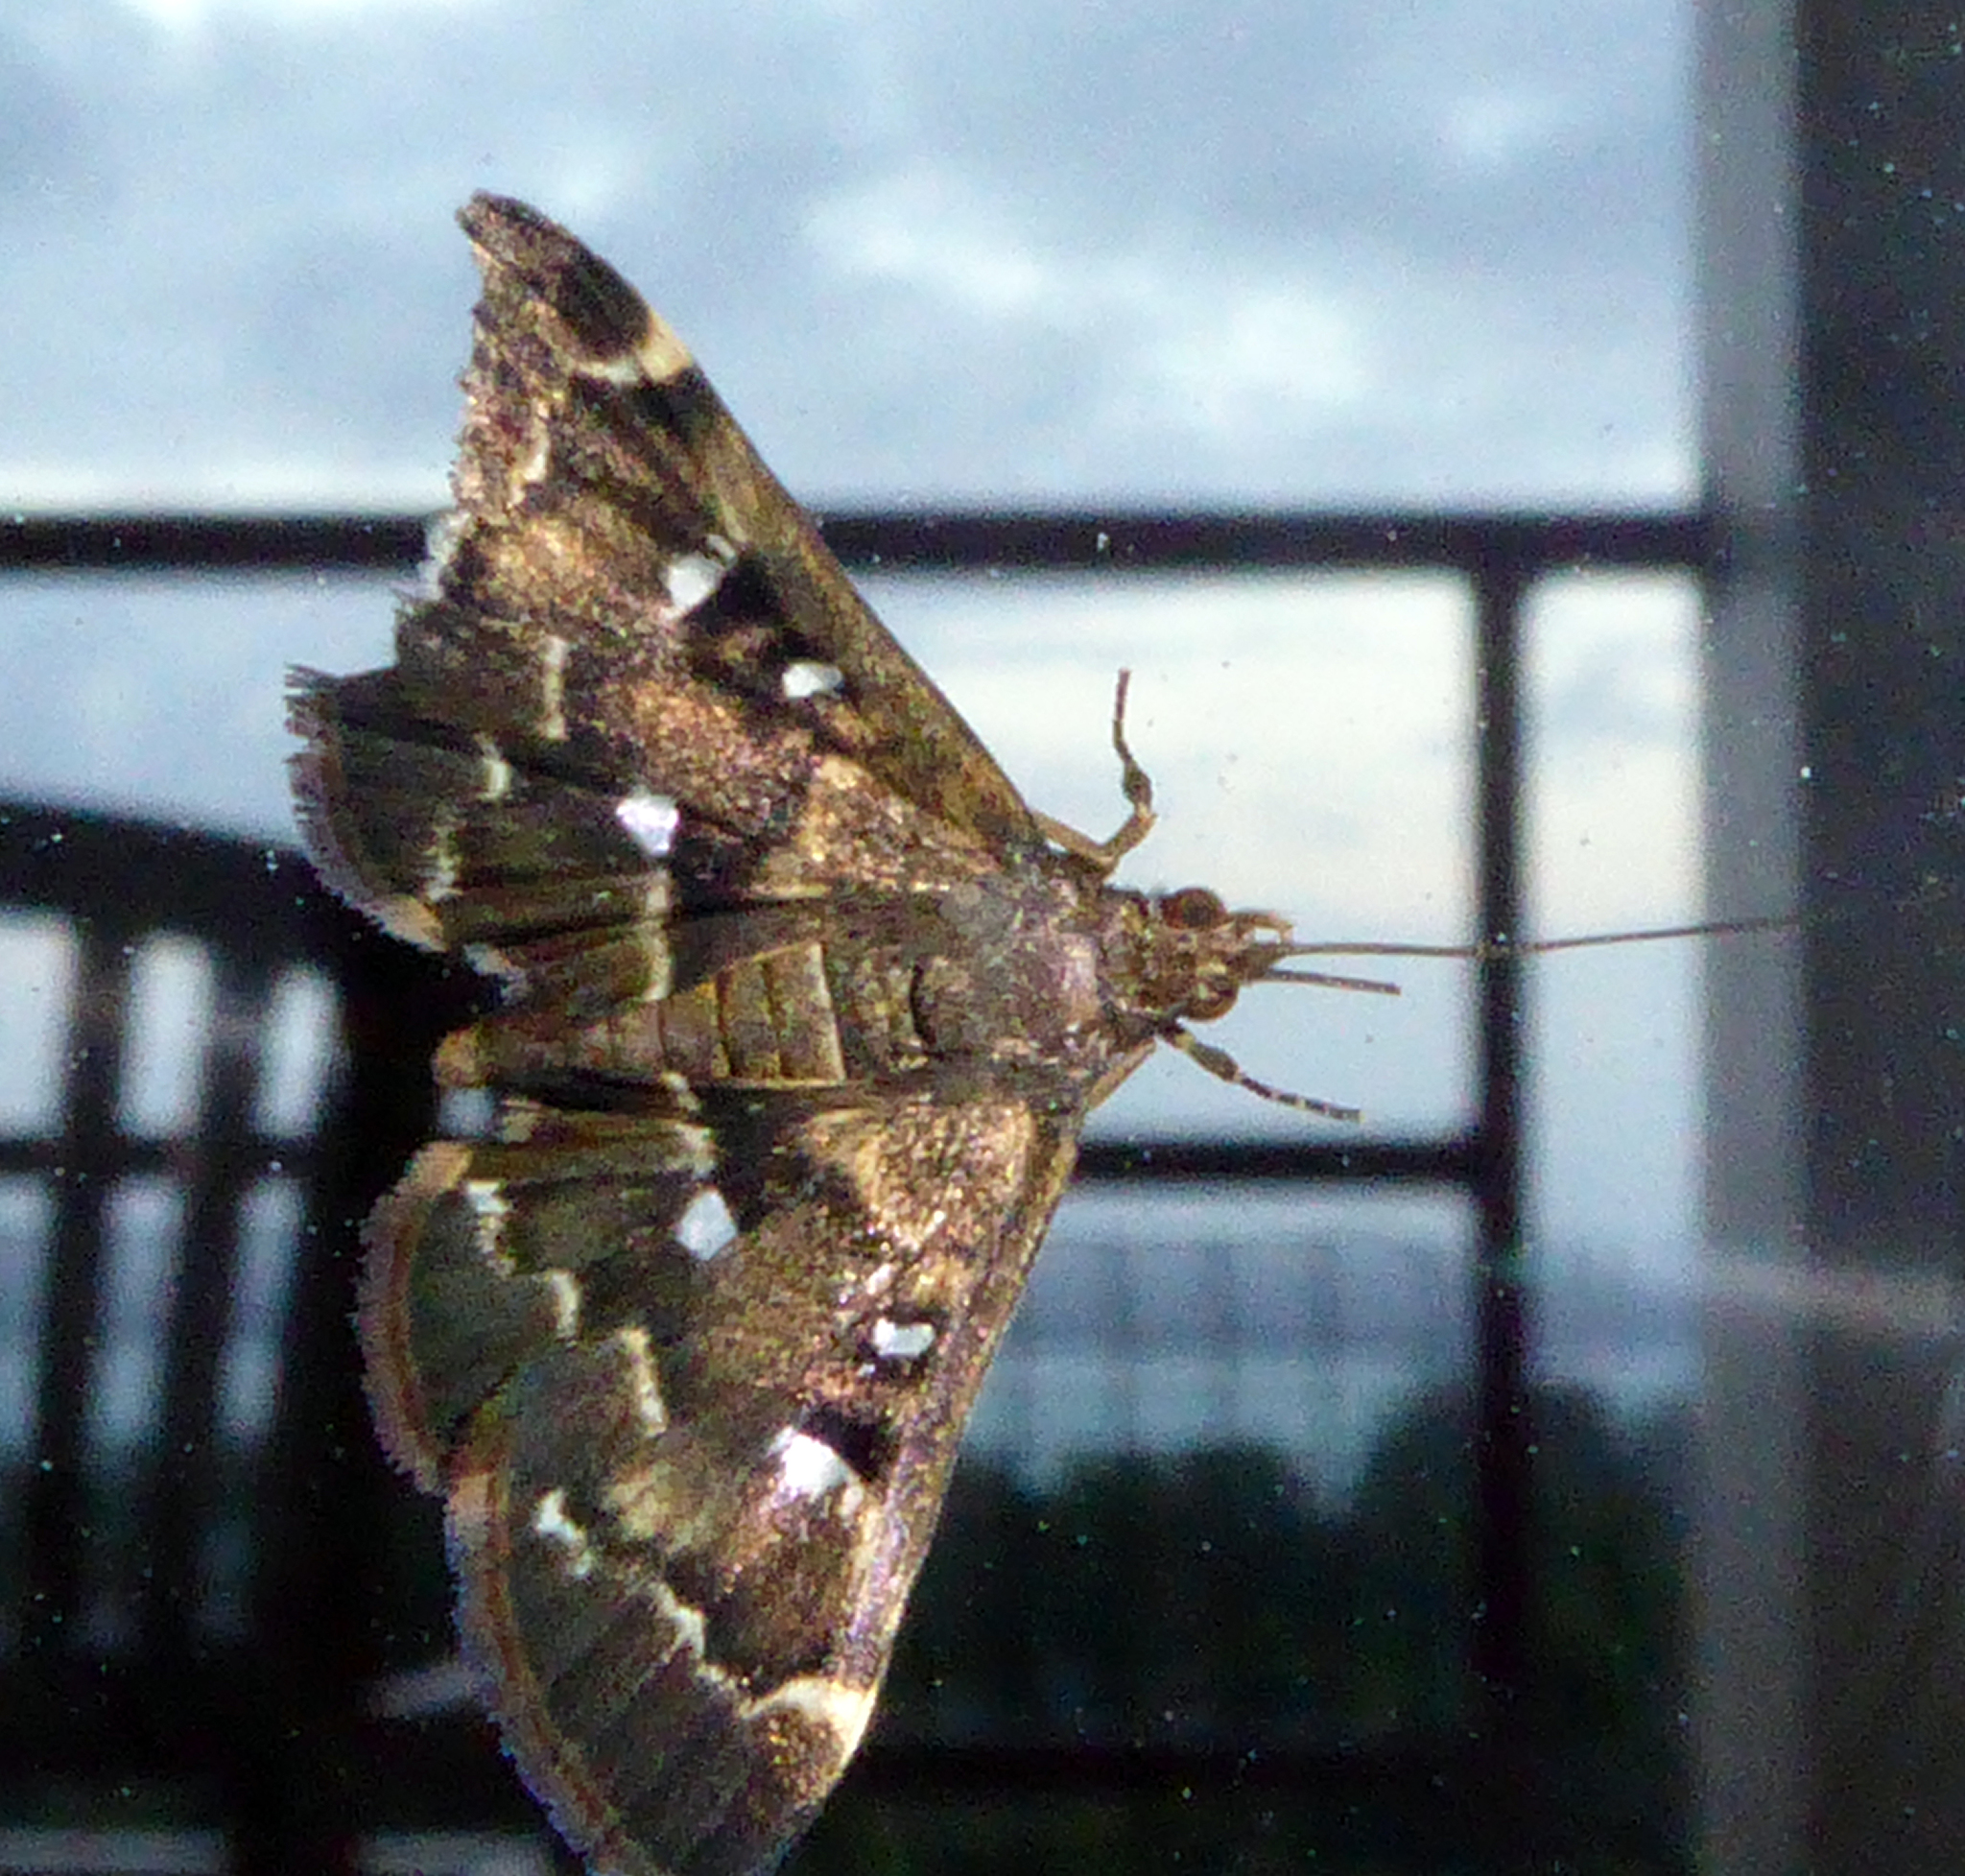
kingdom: Animalia
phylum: Arthropoda
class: Insecta
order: Lepidoptera
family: Crambidae
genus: Piletocera
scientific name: Piletocera fluctualis
